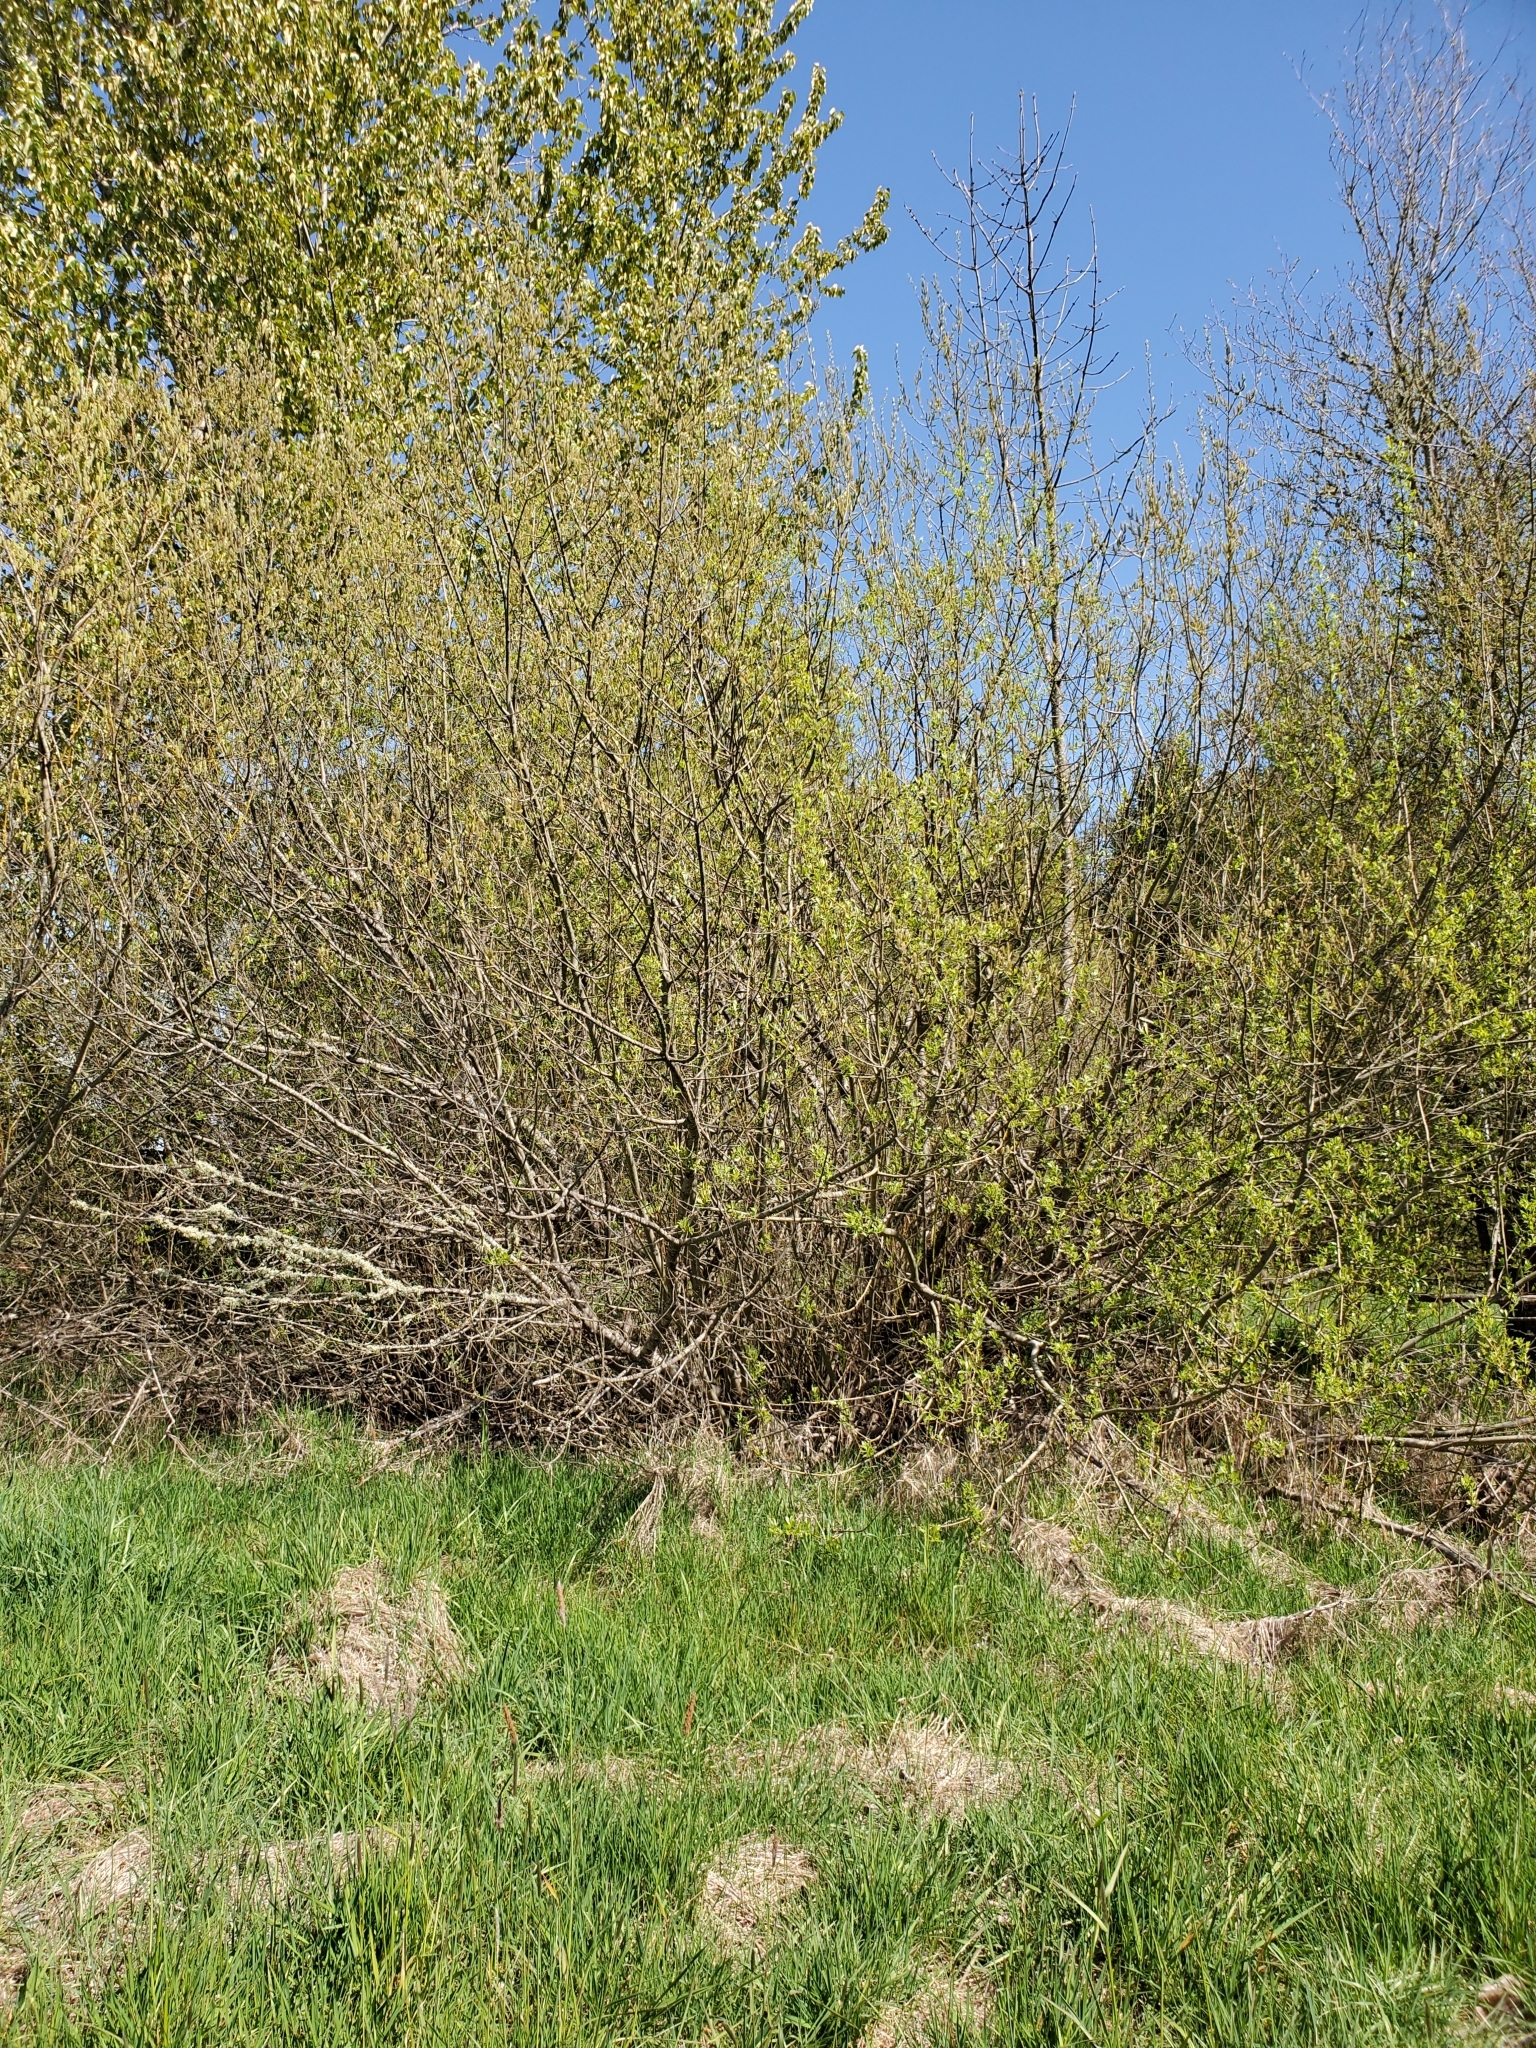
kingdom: Plantae
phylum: Tracheophyta
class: Magnoliopsida
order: Malpighiales
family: Salicaceae
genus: Salix
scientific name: Salix sitchensis
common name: Sitka willow
